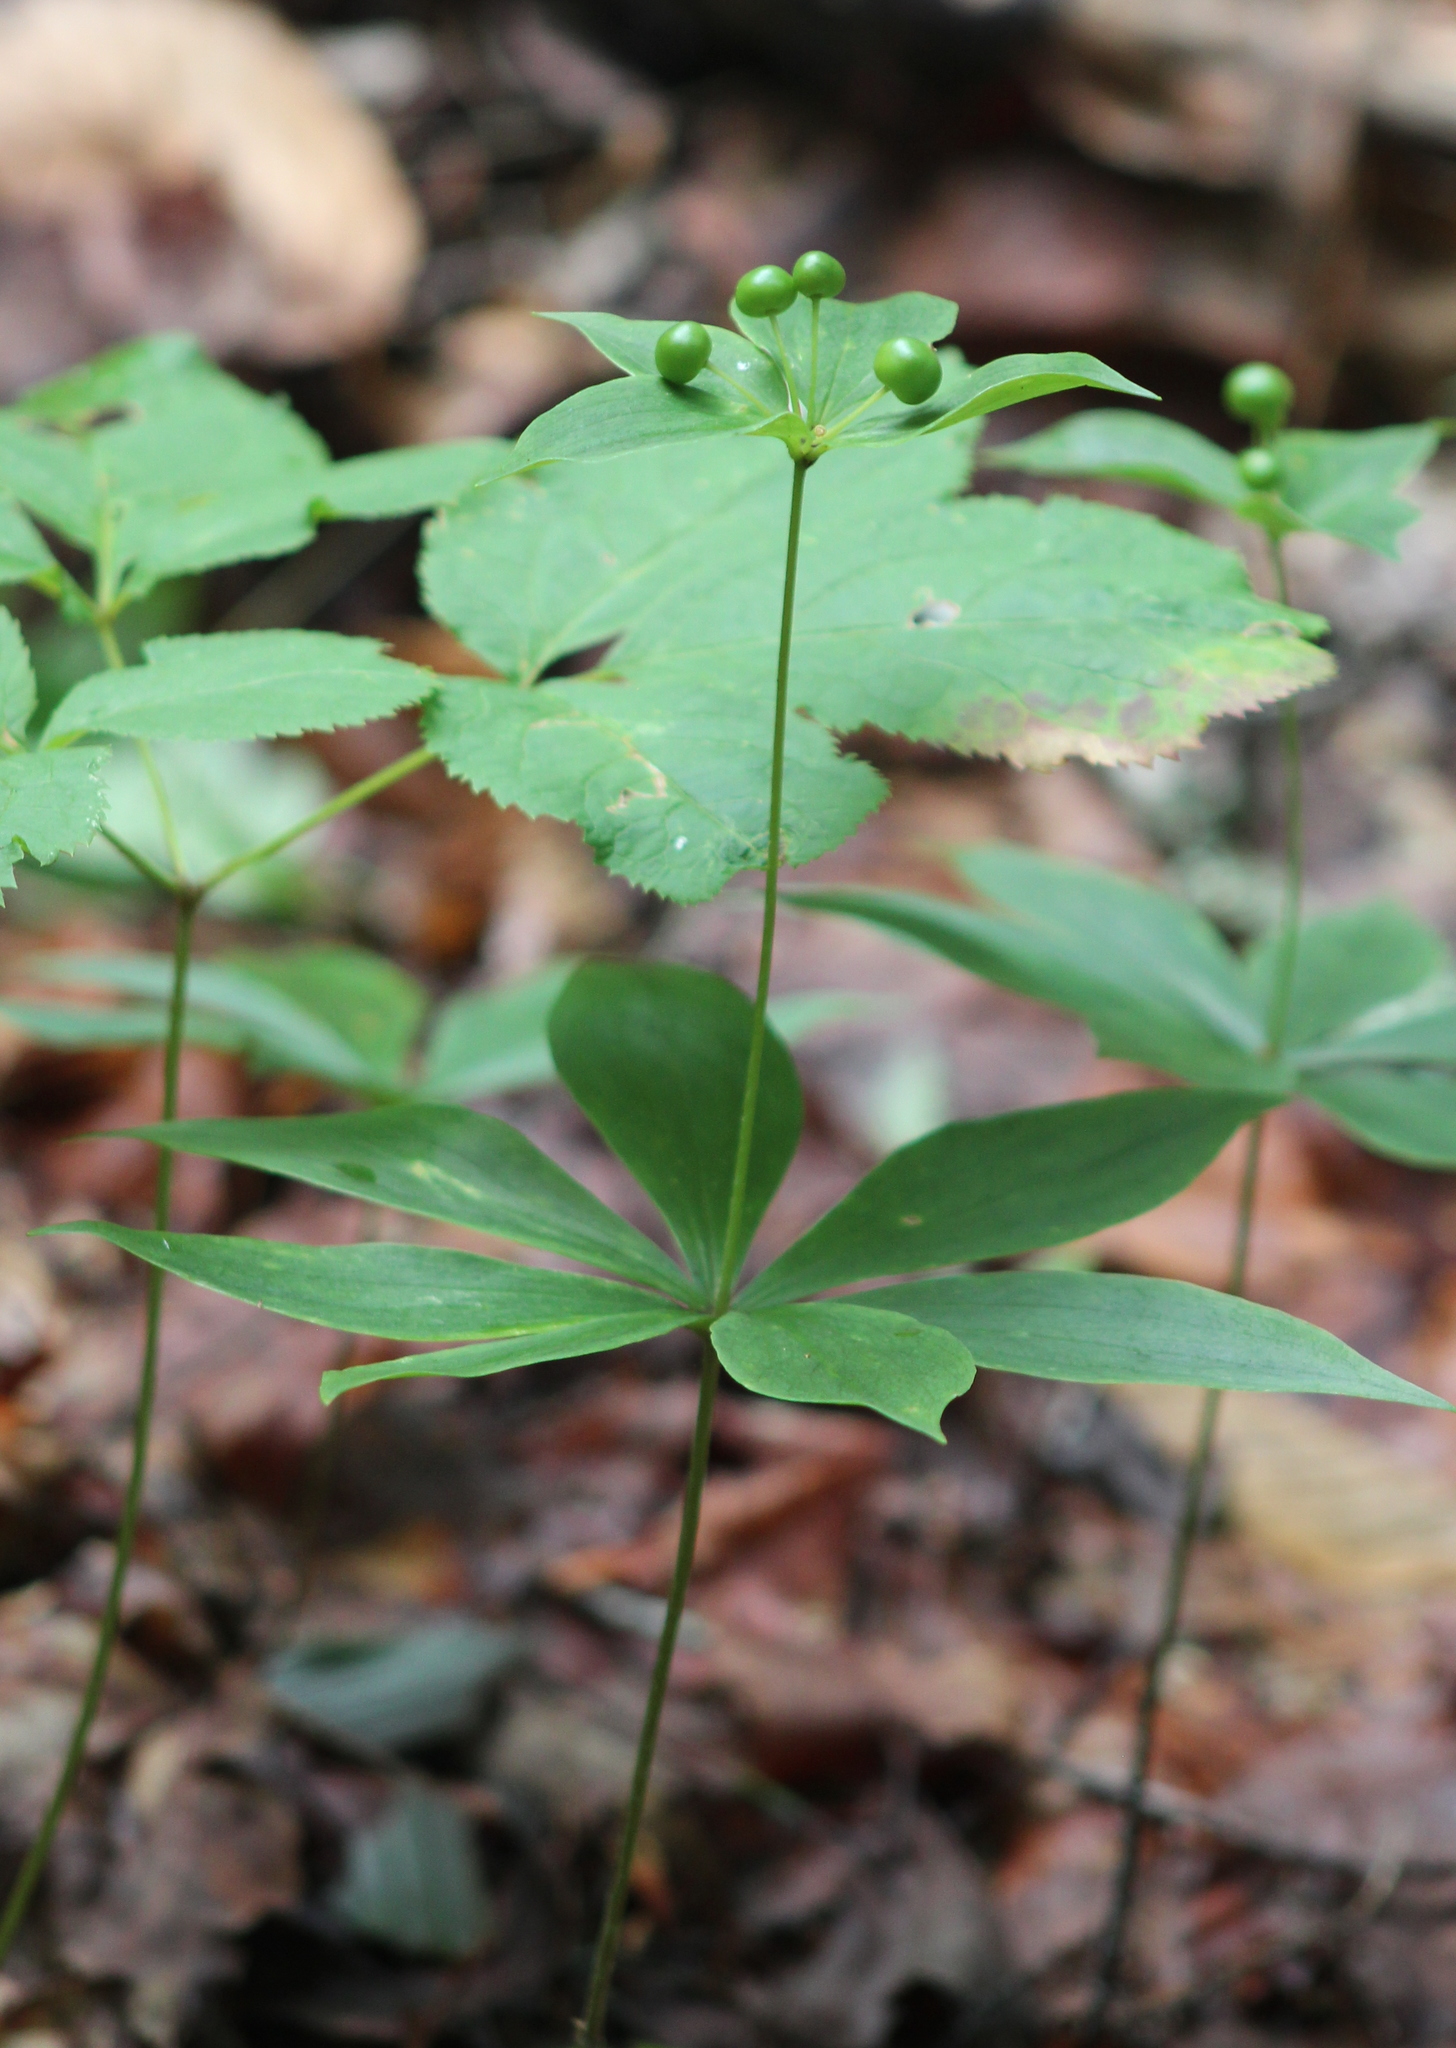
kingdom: Plantae
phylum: Tracheophyta
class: Liliopsida
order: Liliales
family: Liliaceae
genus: Medeola
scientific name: Medeola virginiana
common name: Indian cucumber-root
